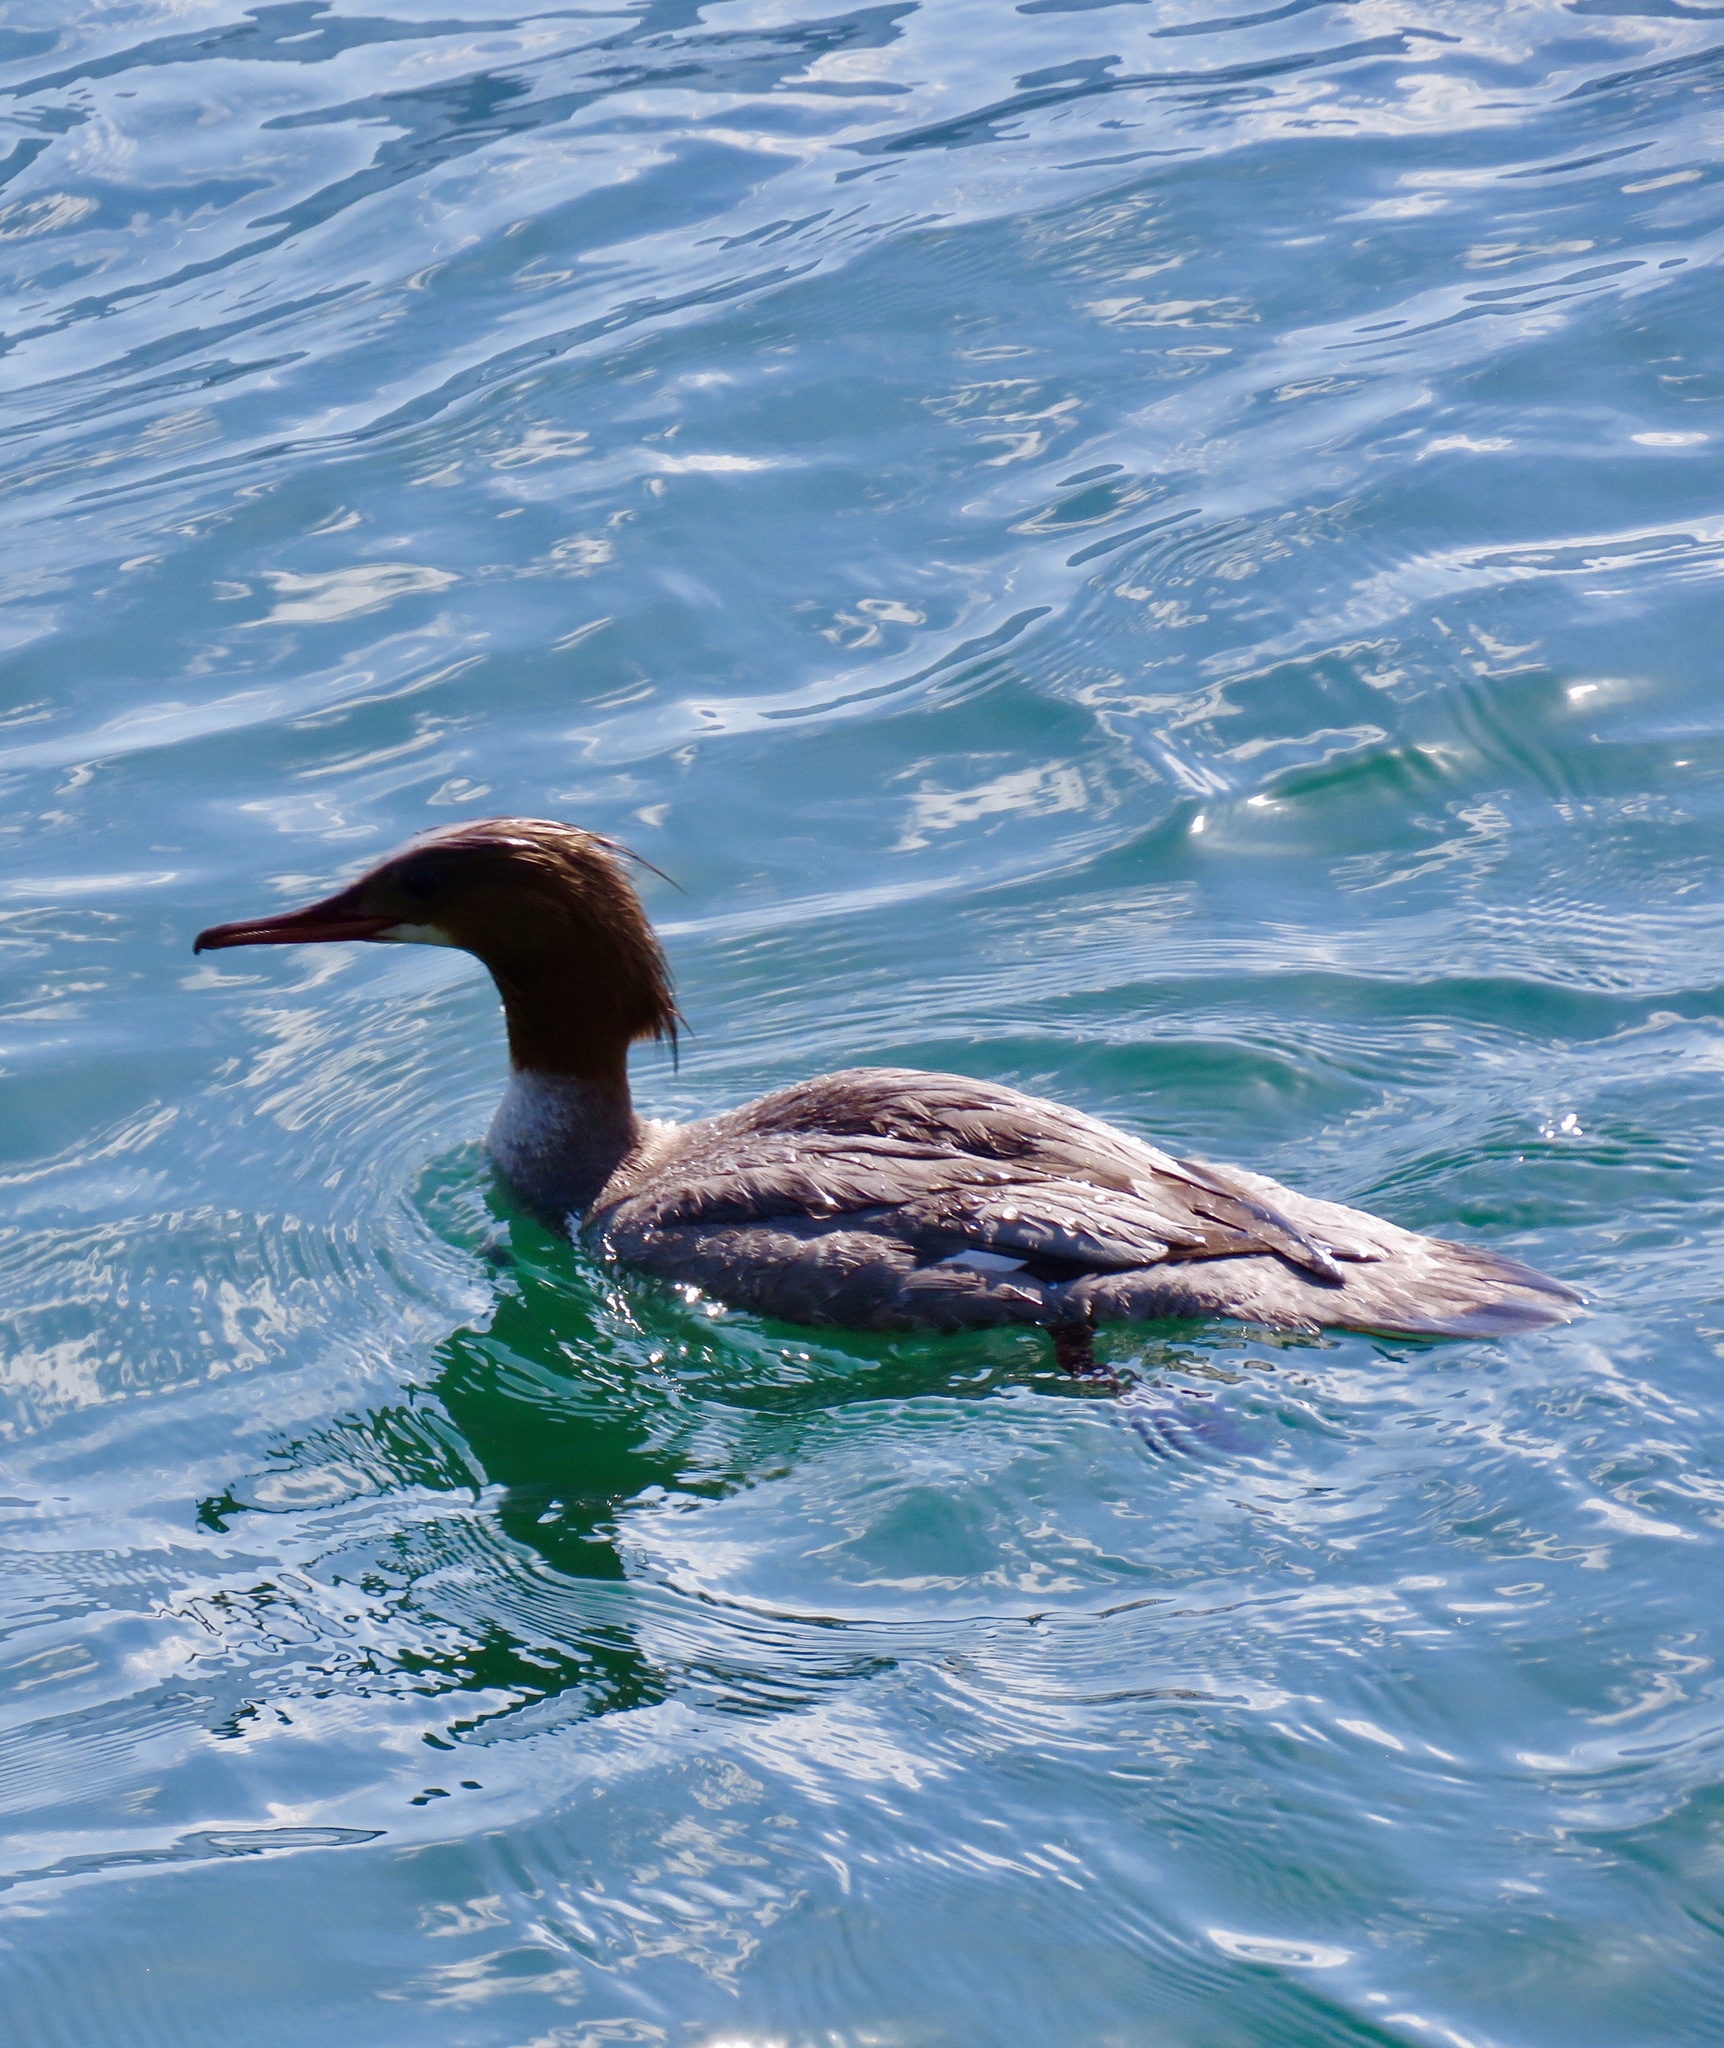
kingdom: Animalia
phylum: Chordata
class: Aves
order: Anseriformes
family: Anatidae
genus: Mergus
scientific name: Mergus merganser
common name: Common merganser
